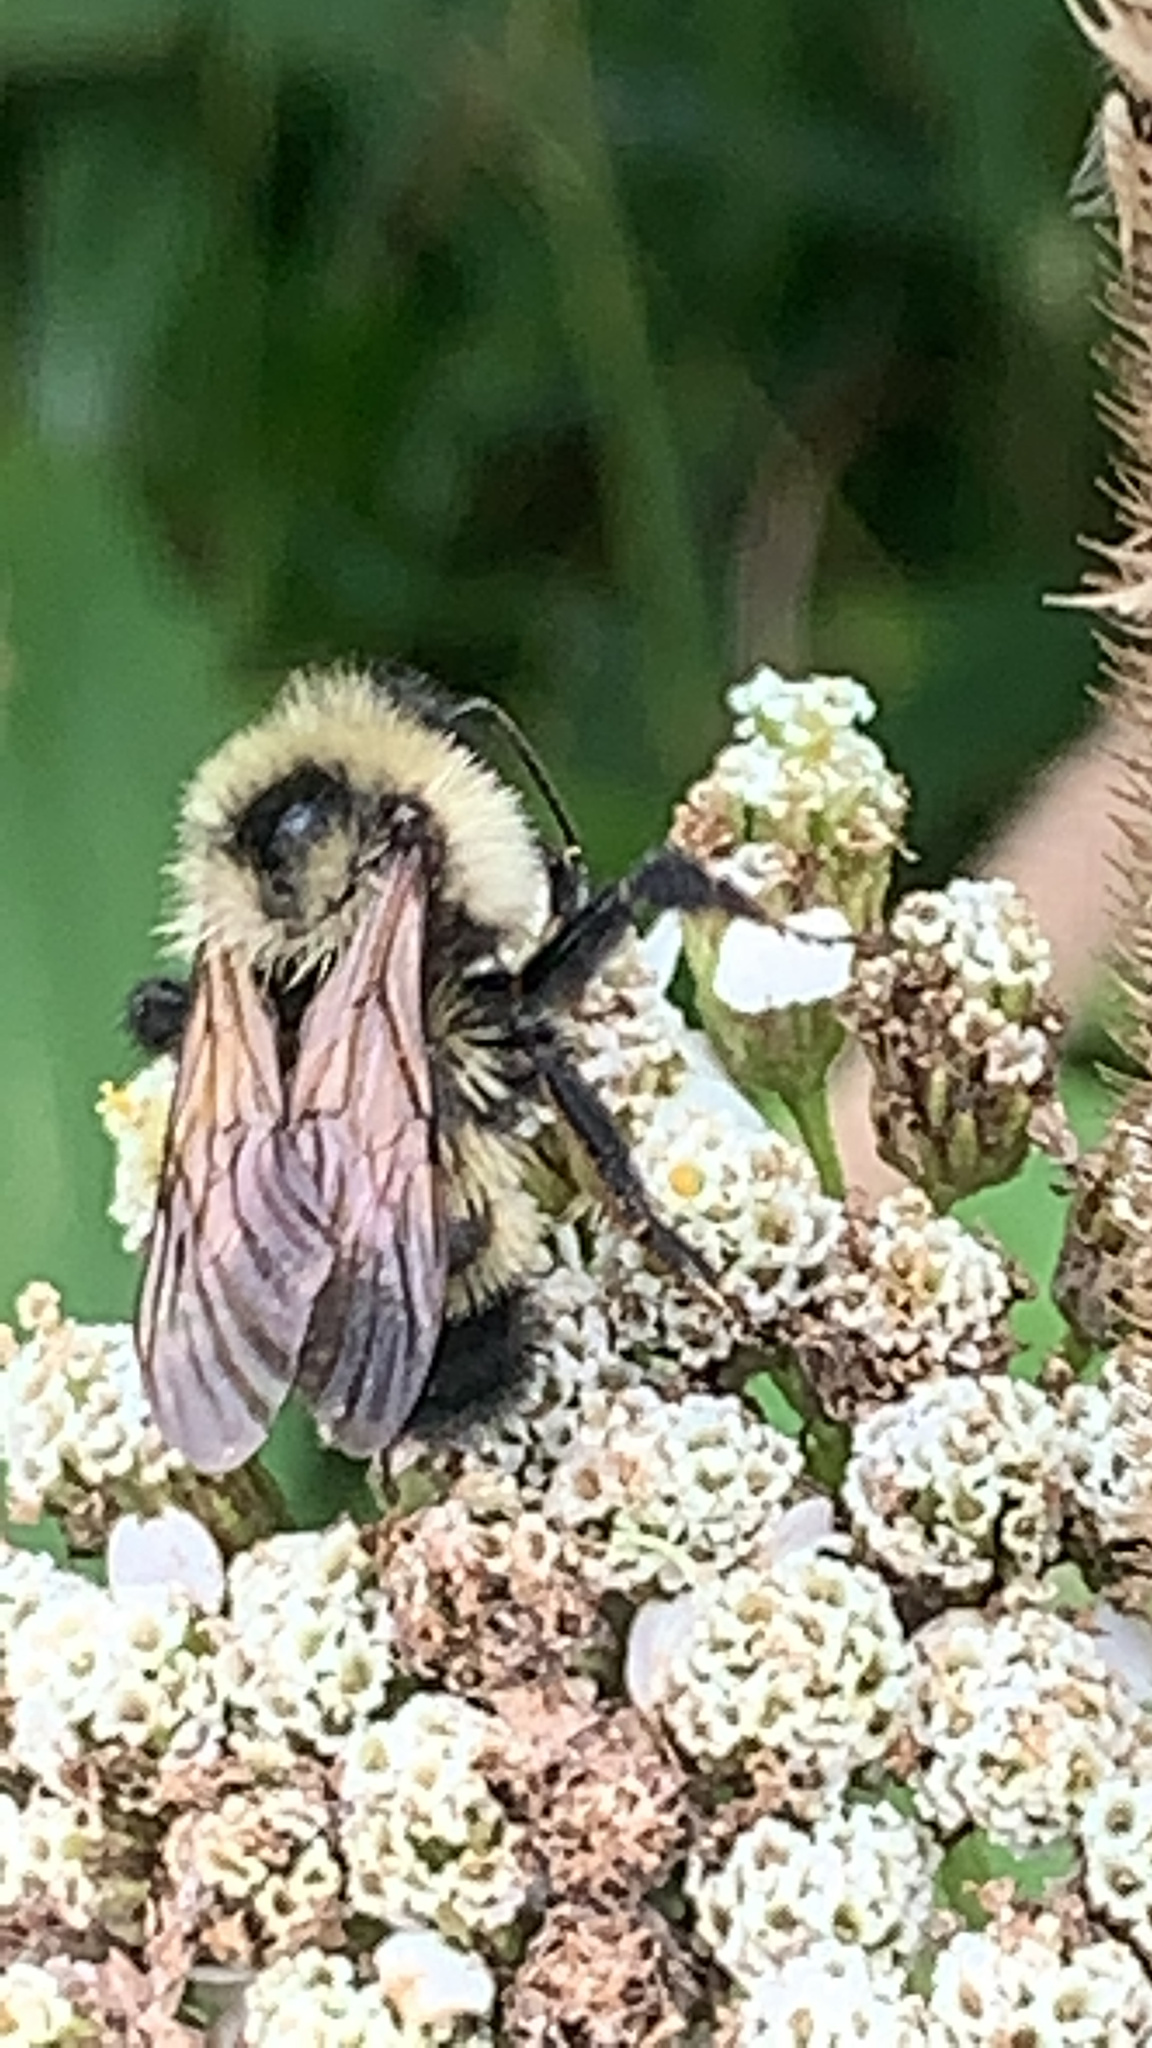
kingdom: Animalia
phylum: Arthropoda
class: Insecta
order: Hymenoptera
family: Apidae
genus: Bombus
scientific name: Bombus citrinus
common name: Lemon cuckoo bumble bee
